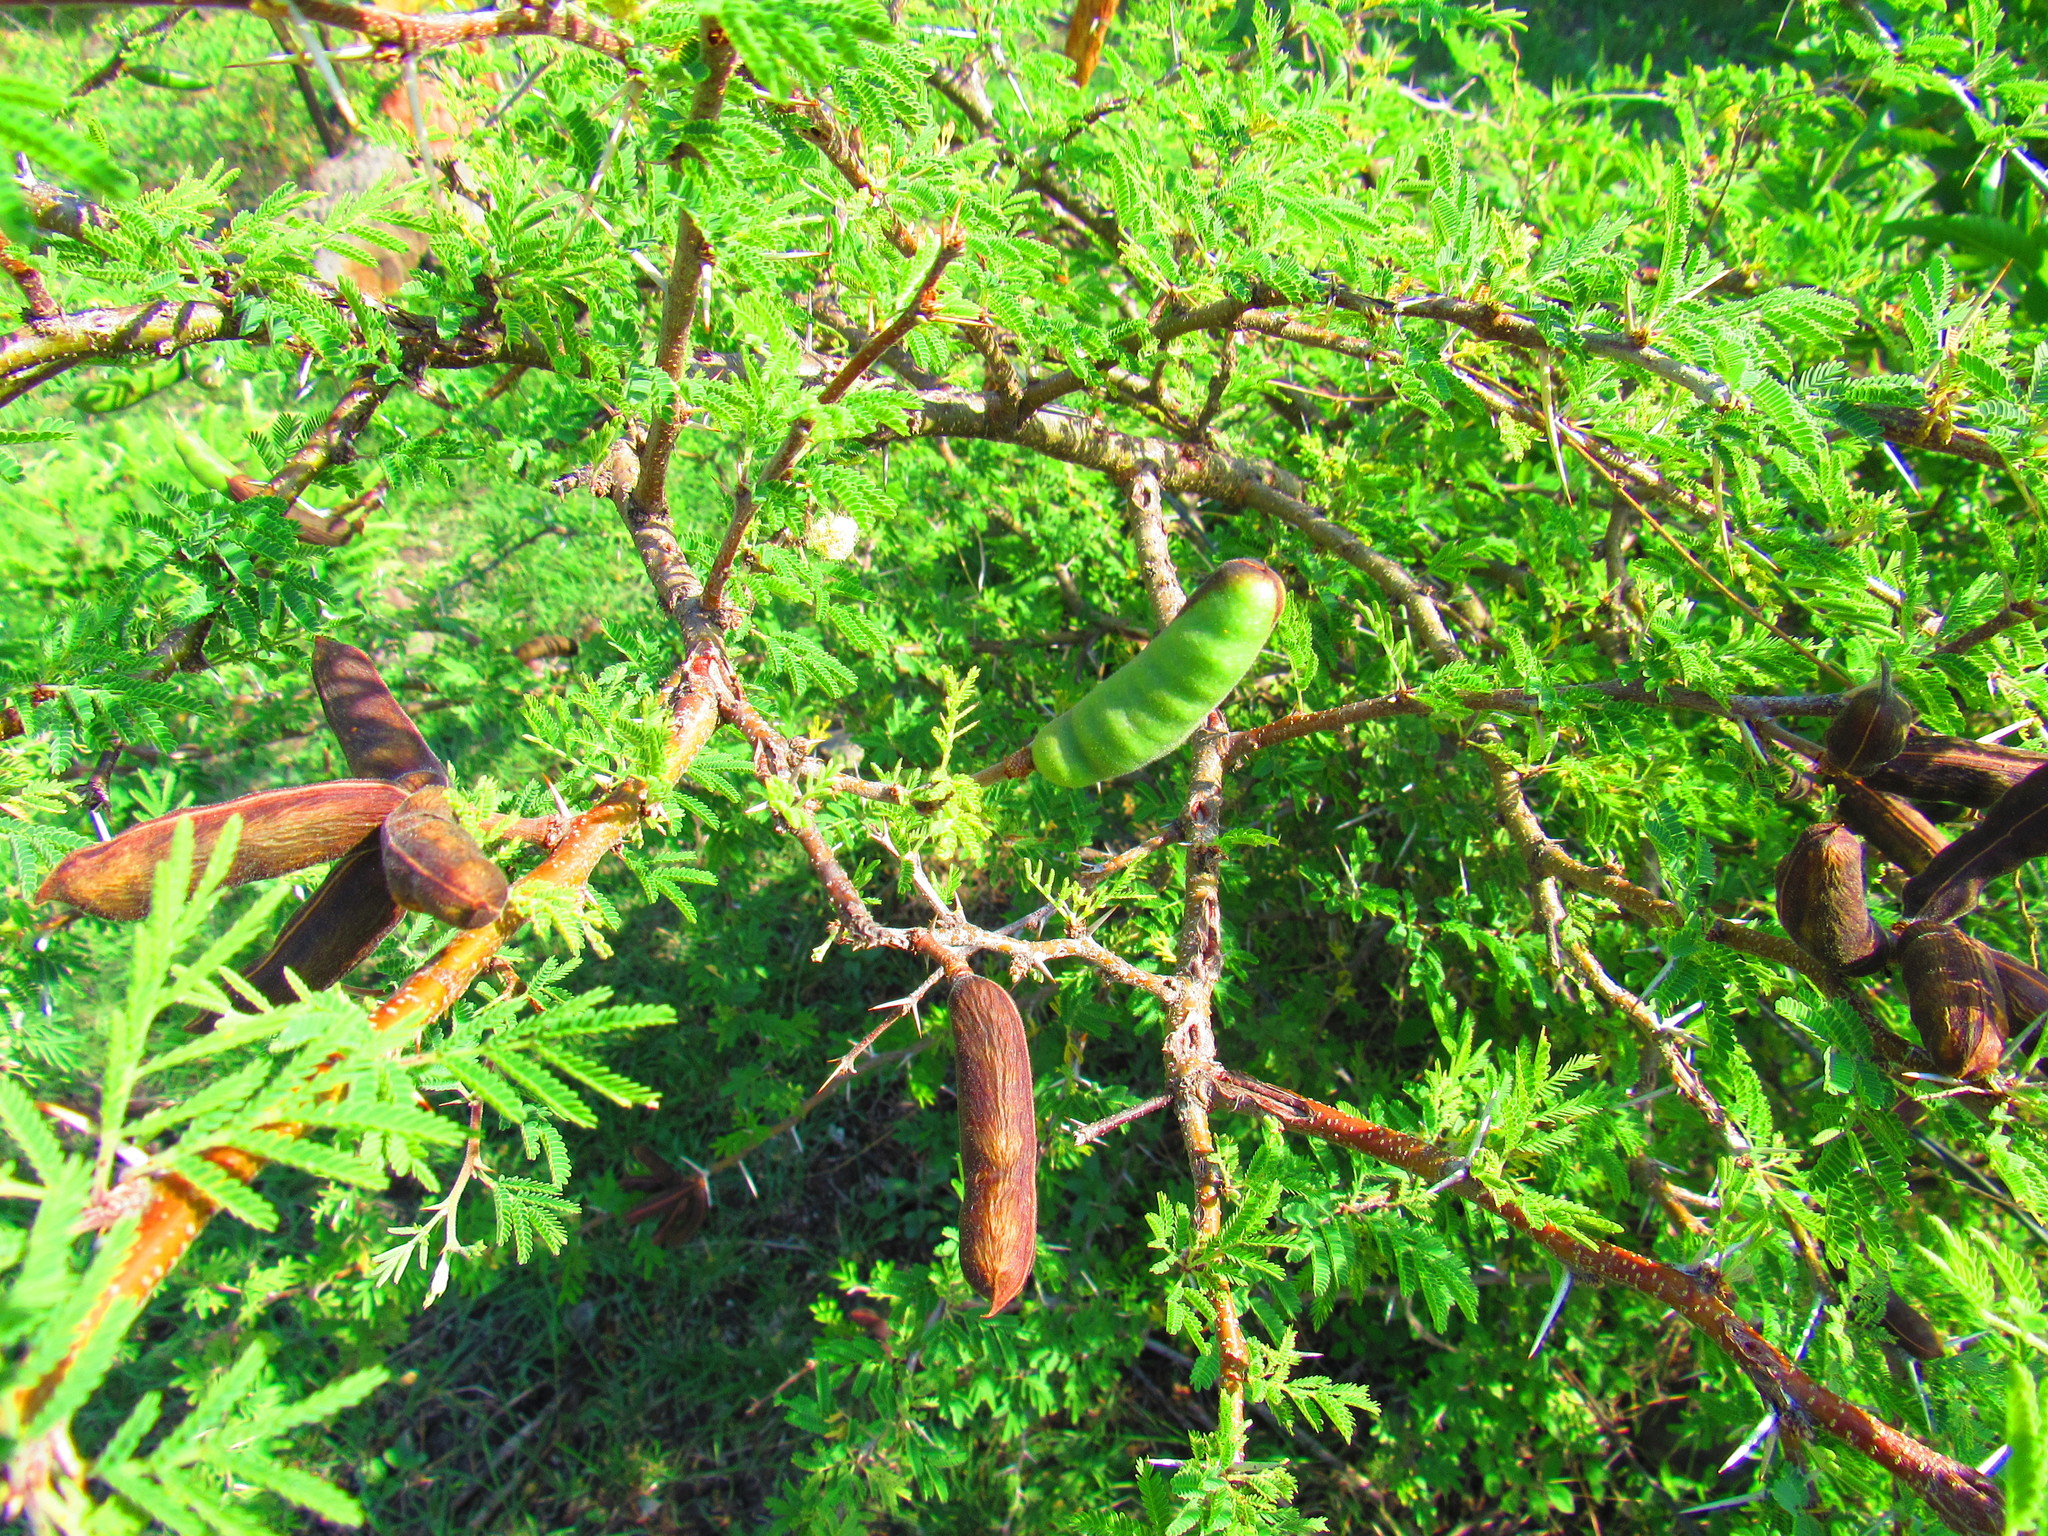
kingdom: Plantae
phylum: Tracheophyta
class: Magnoliopsida
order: Fabales
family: Fabaceae
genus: Vachellia
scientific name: Vachellia farnesiana
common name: Sweet acacia
